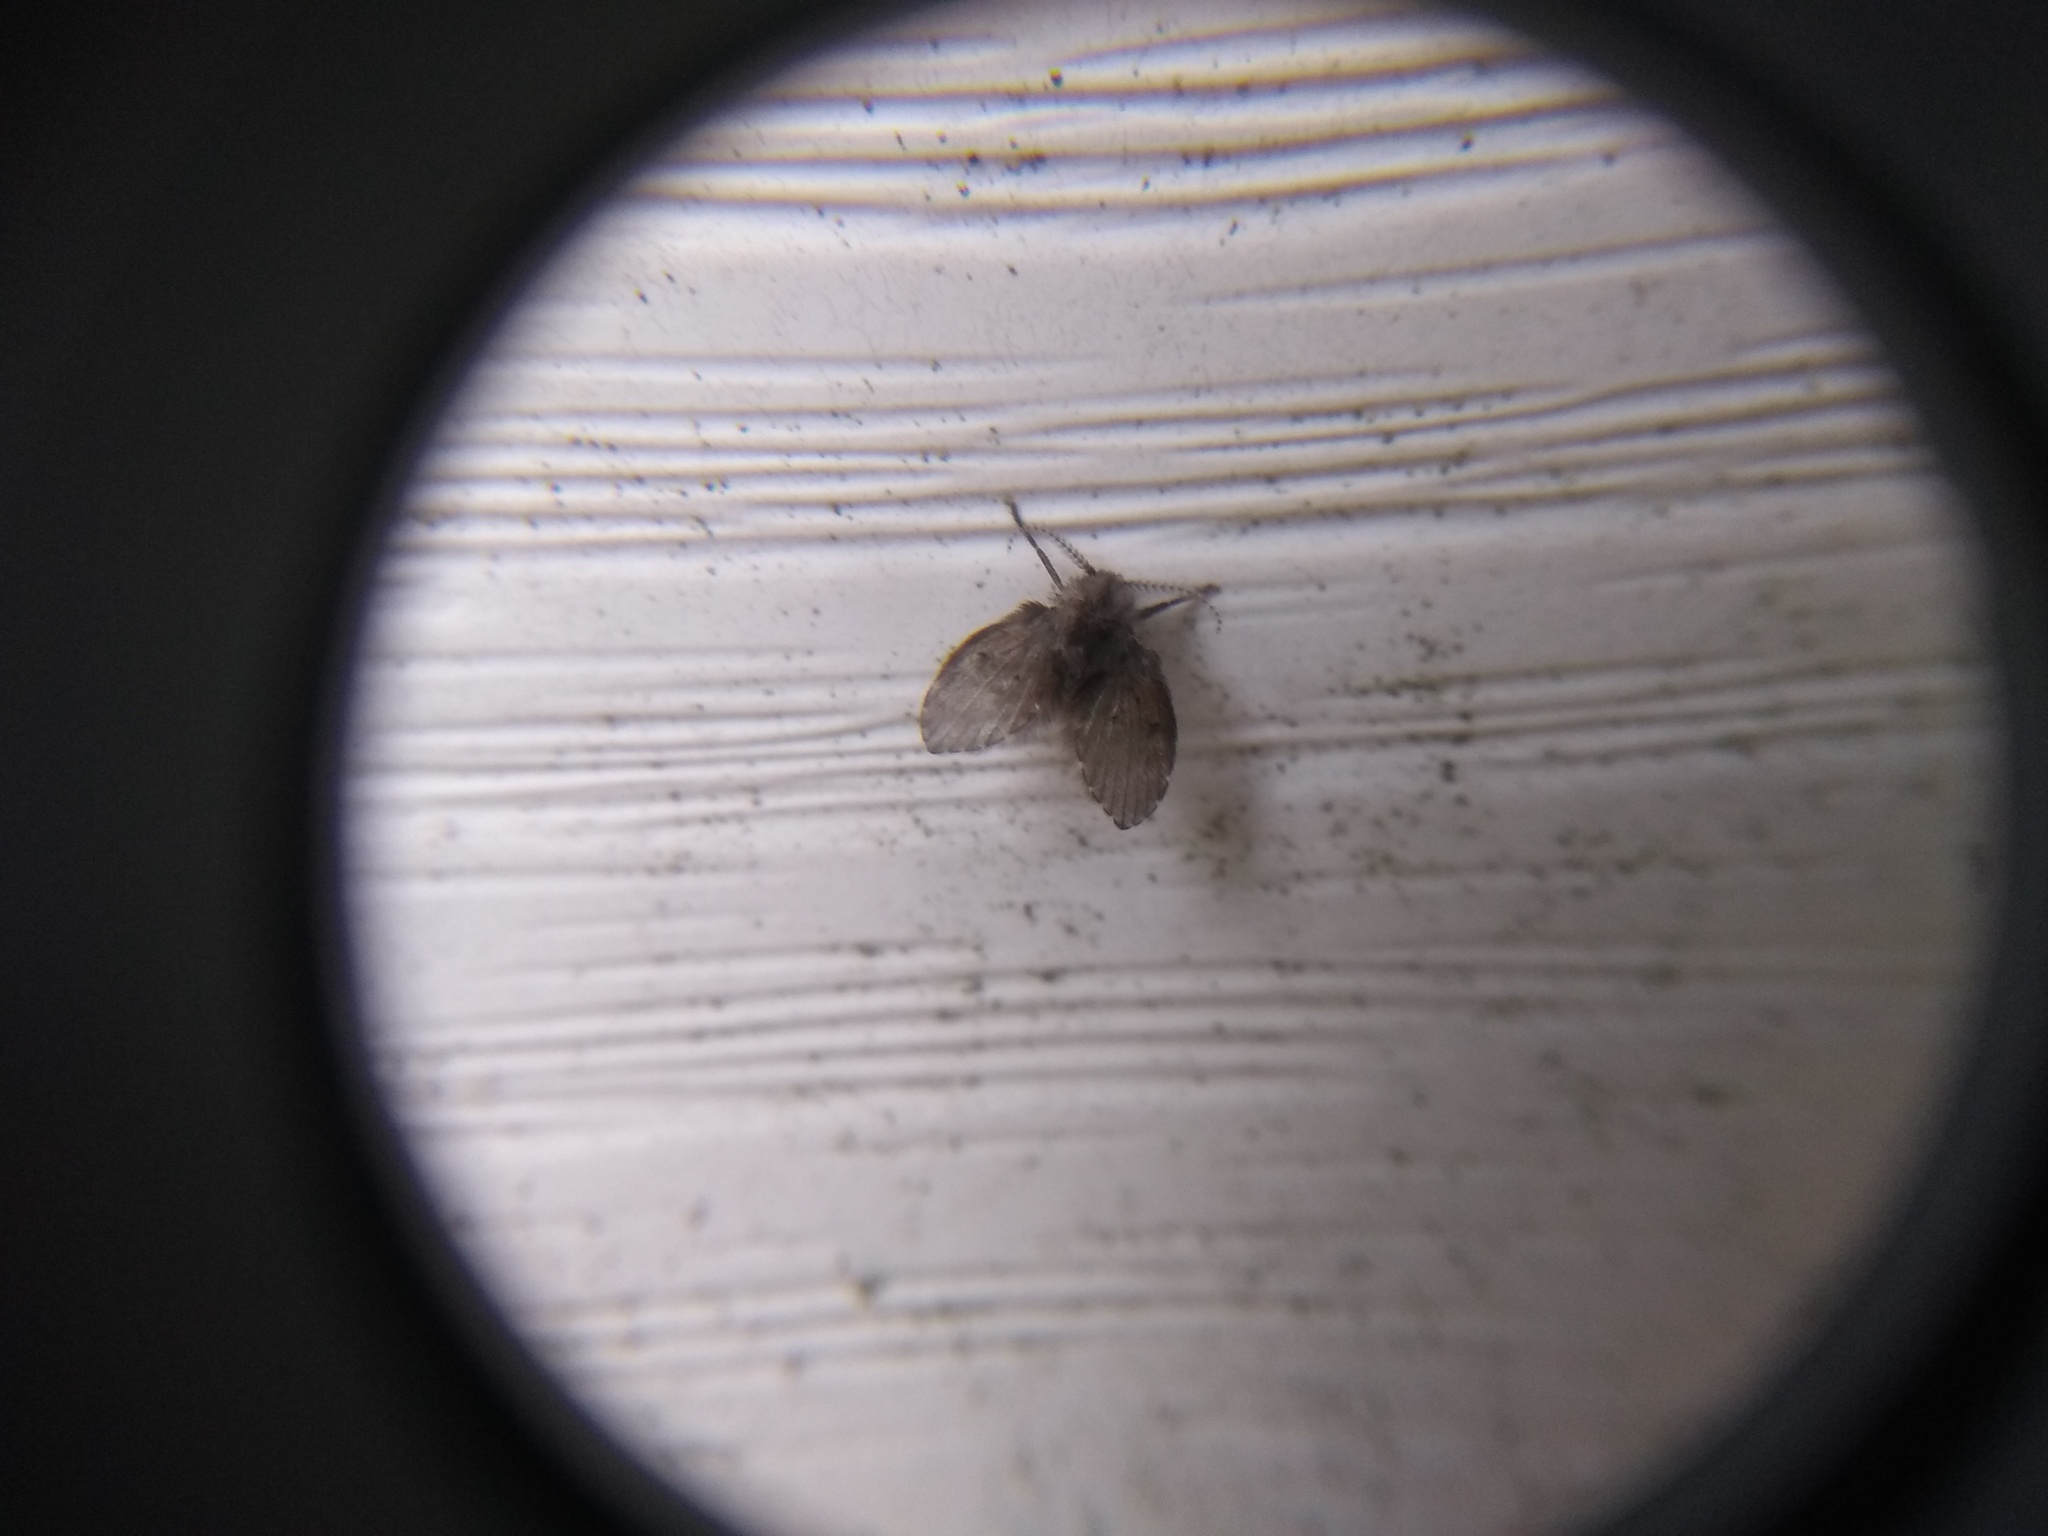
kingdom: Animalia
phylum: Arthropoda
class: Insecta
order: Diptera
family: Psychodidae
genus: Clogmia
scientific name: Clogmia albipunctatus
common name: White-spotted moth fly
